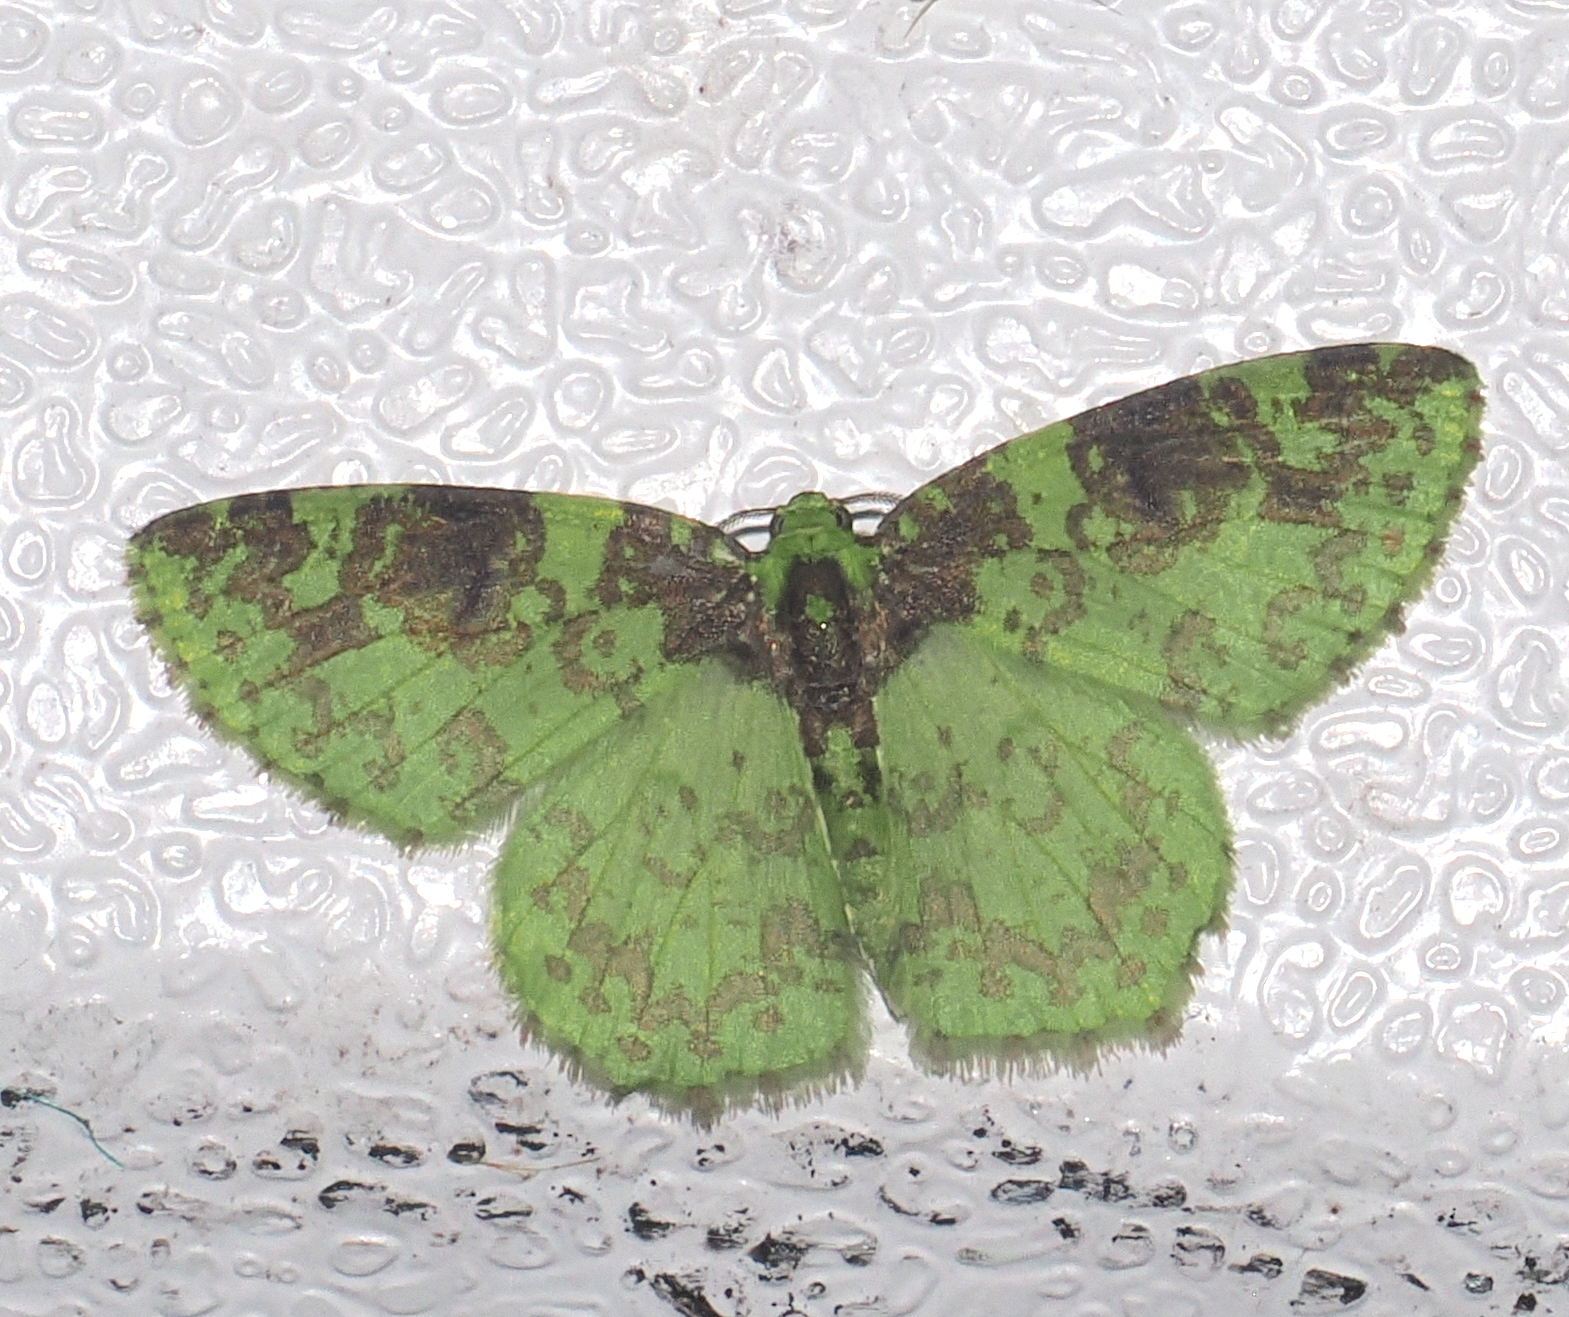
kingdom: Animalia
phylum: Arthropoda
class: Insecta
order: Lepidoptera
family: Geometridae
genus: Nemoria
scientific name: Nemoria scriptaria
